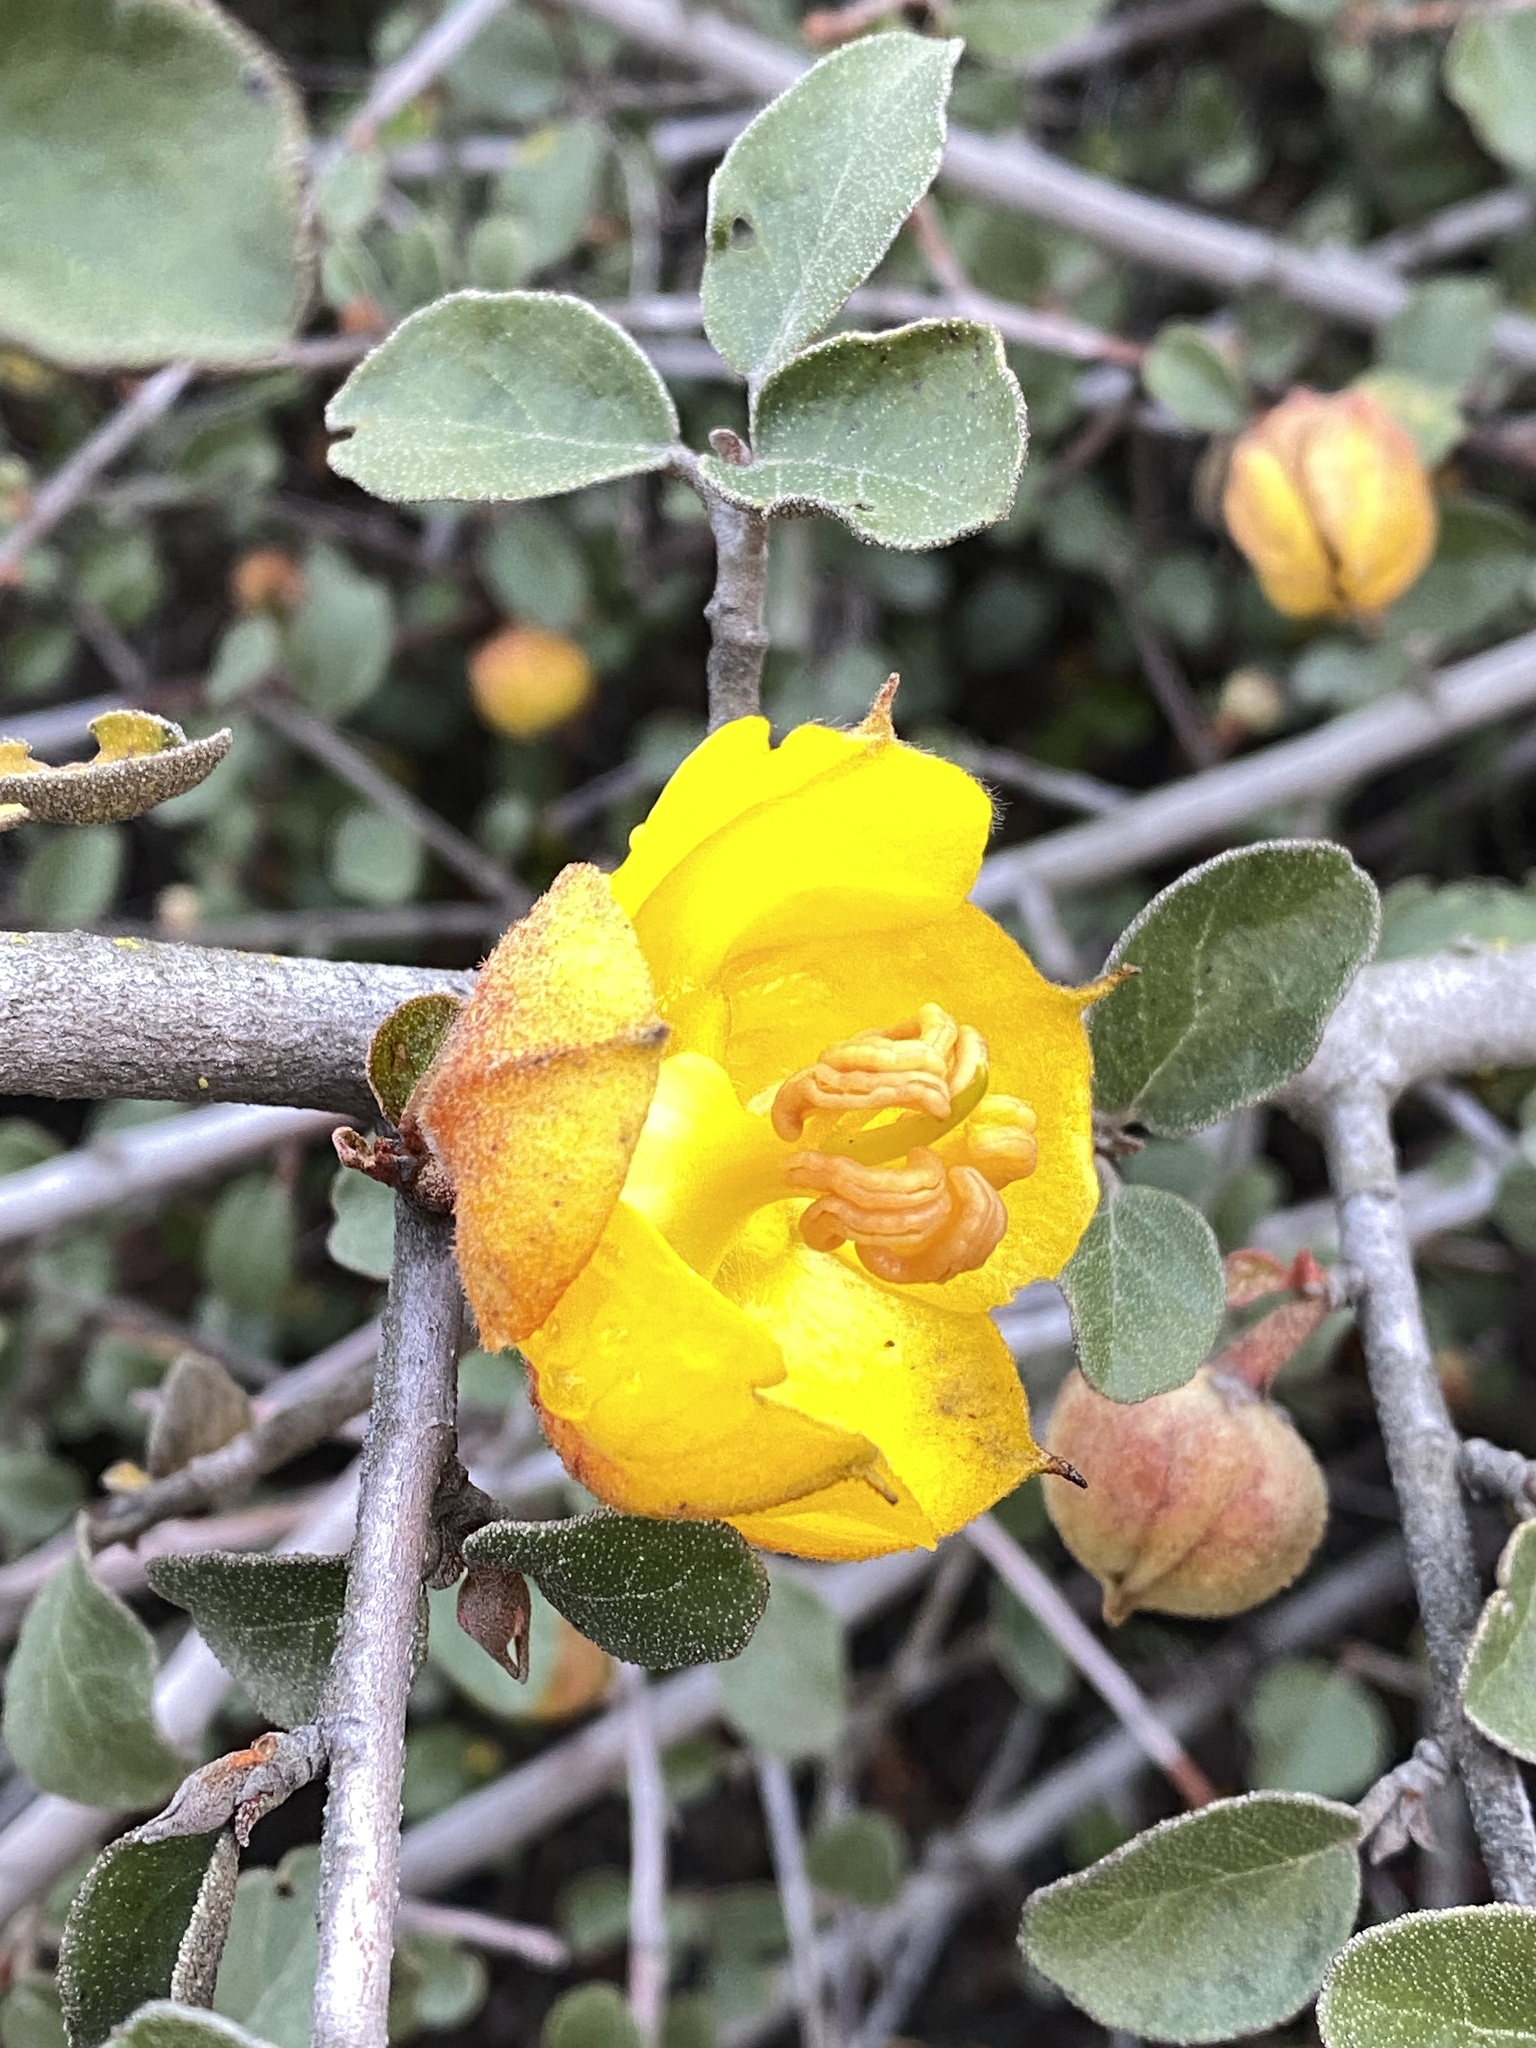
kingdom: Plantae
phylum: Tracheophyta
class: Magnoliopsida
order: Malvales
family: Malvaceae
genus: Fremontodendron
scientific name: Fremontodendron californicum
